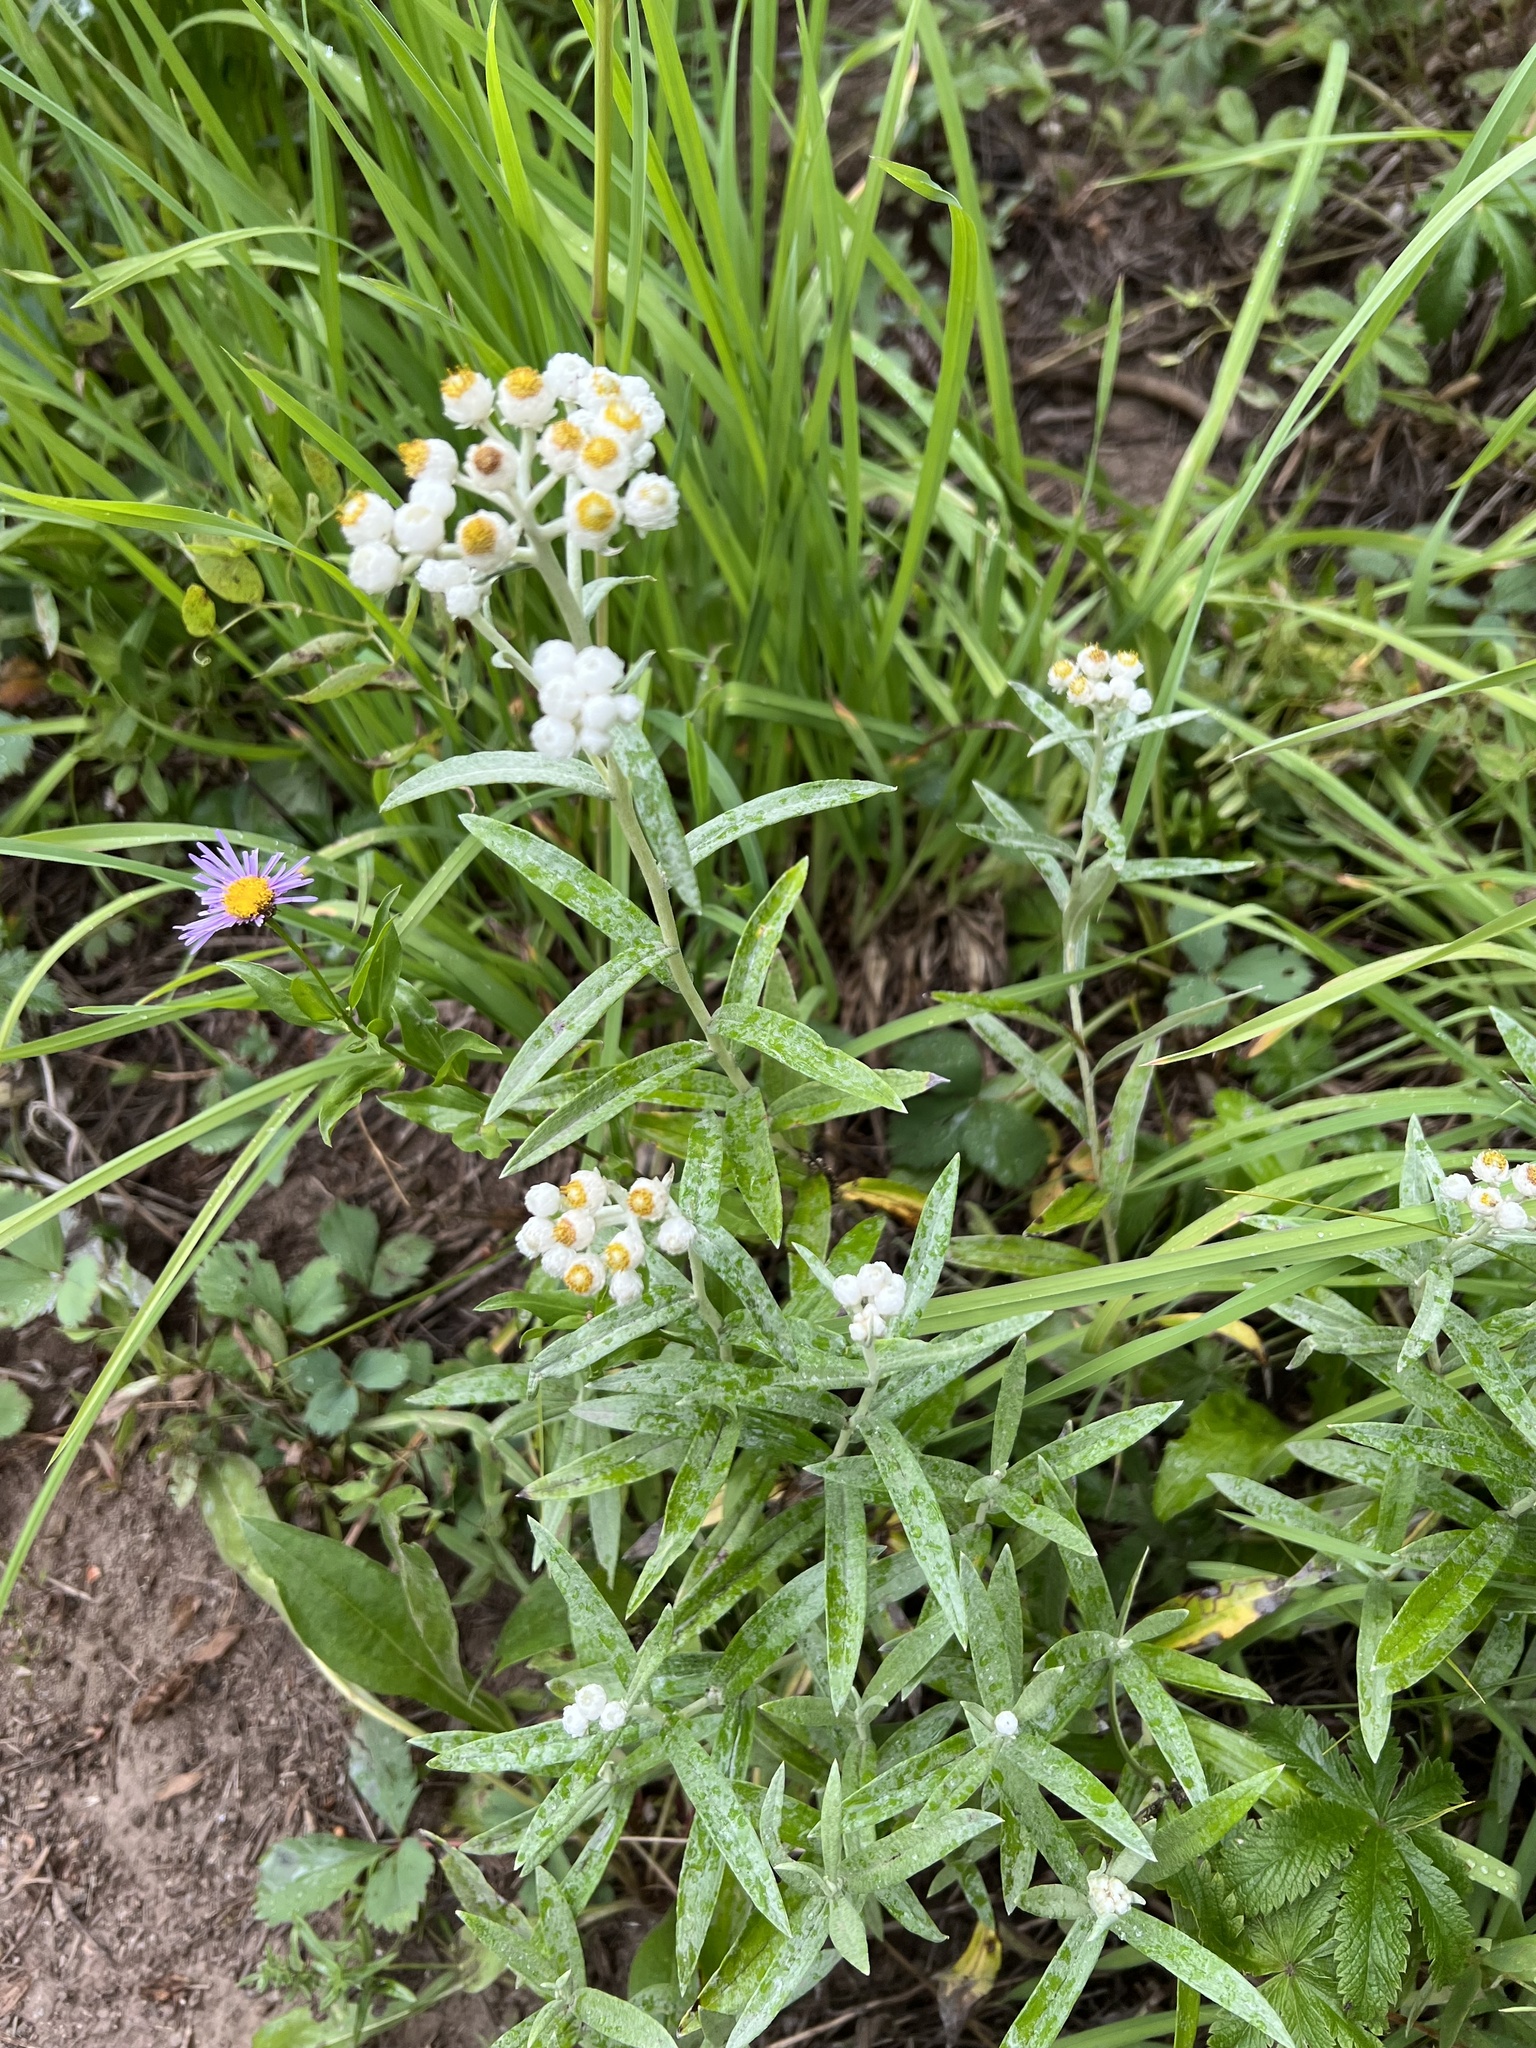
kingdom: Plantae
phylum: Tracheophyta
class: Magnoliopsida
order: Asterales
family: Asteraceae
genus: Anaphalis
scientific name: Anaphalis margaritacea
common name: Pearly everlasting
